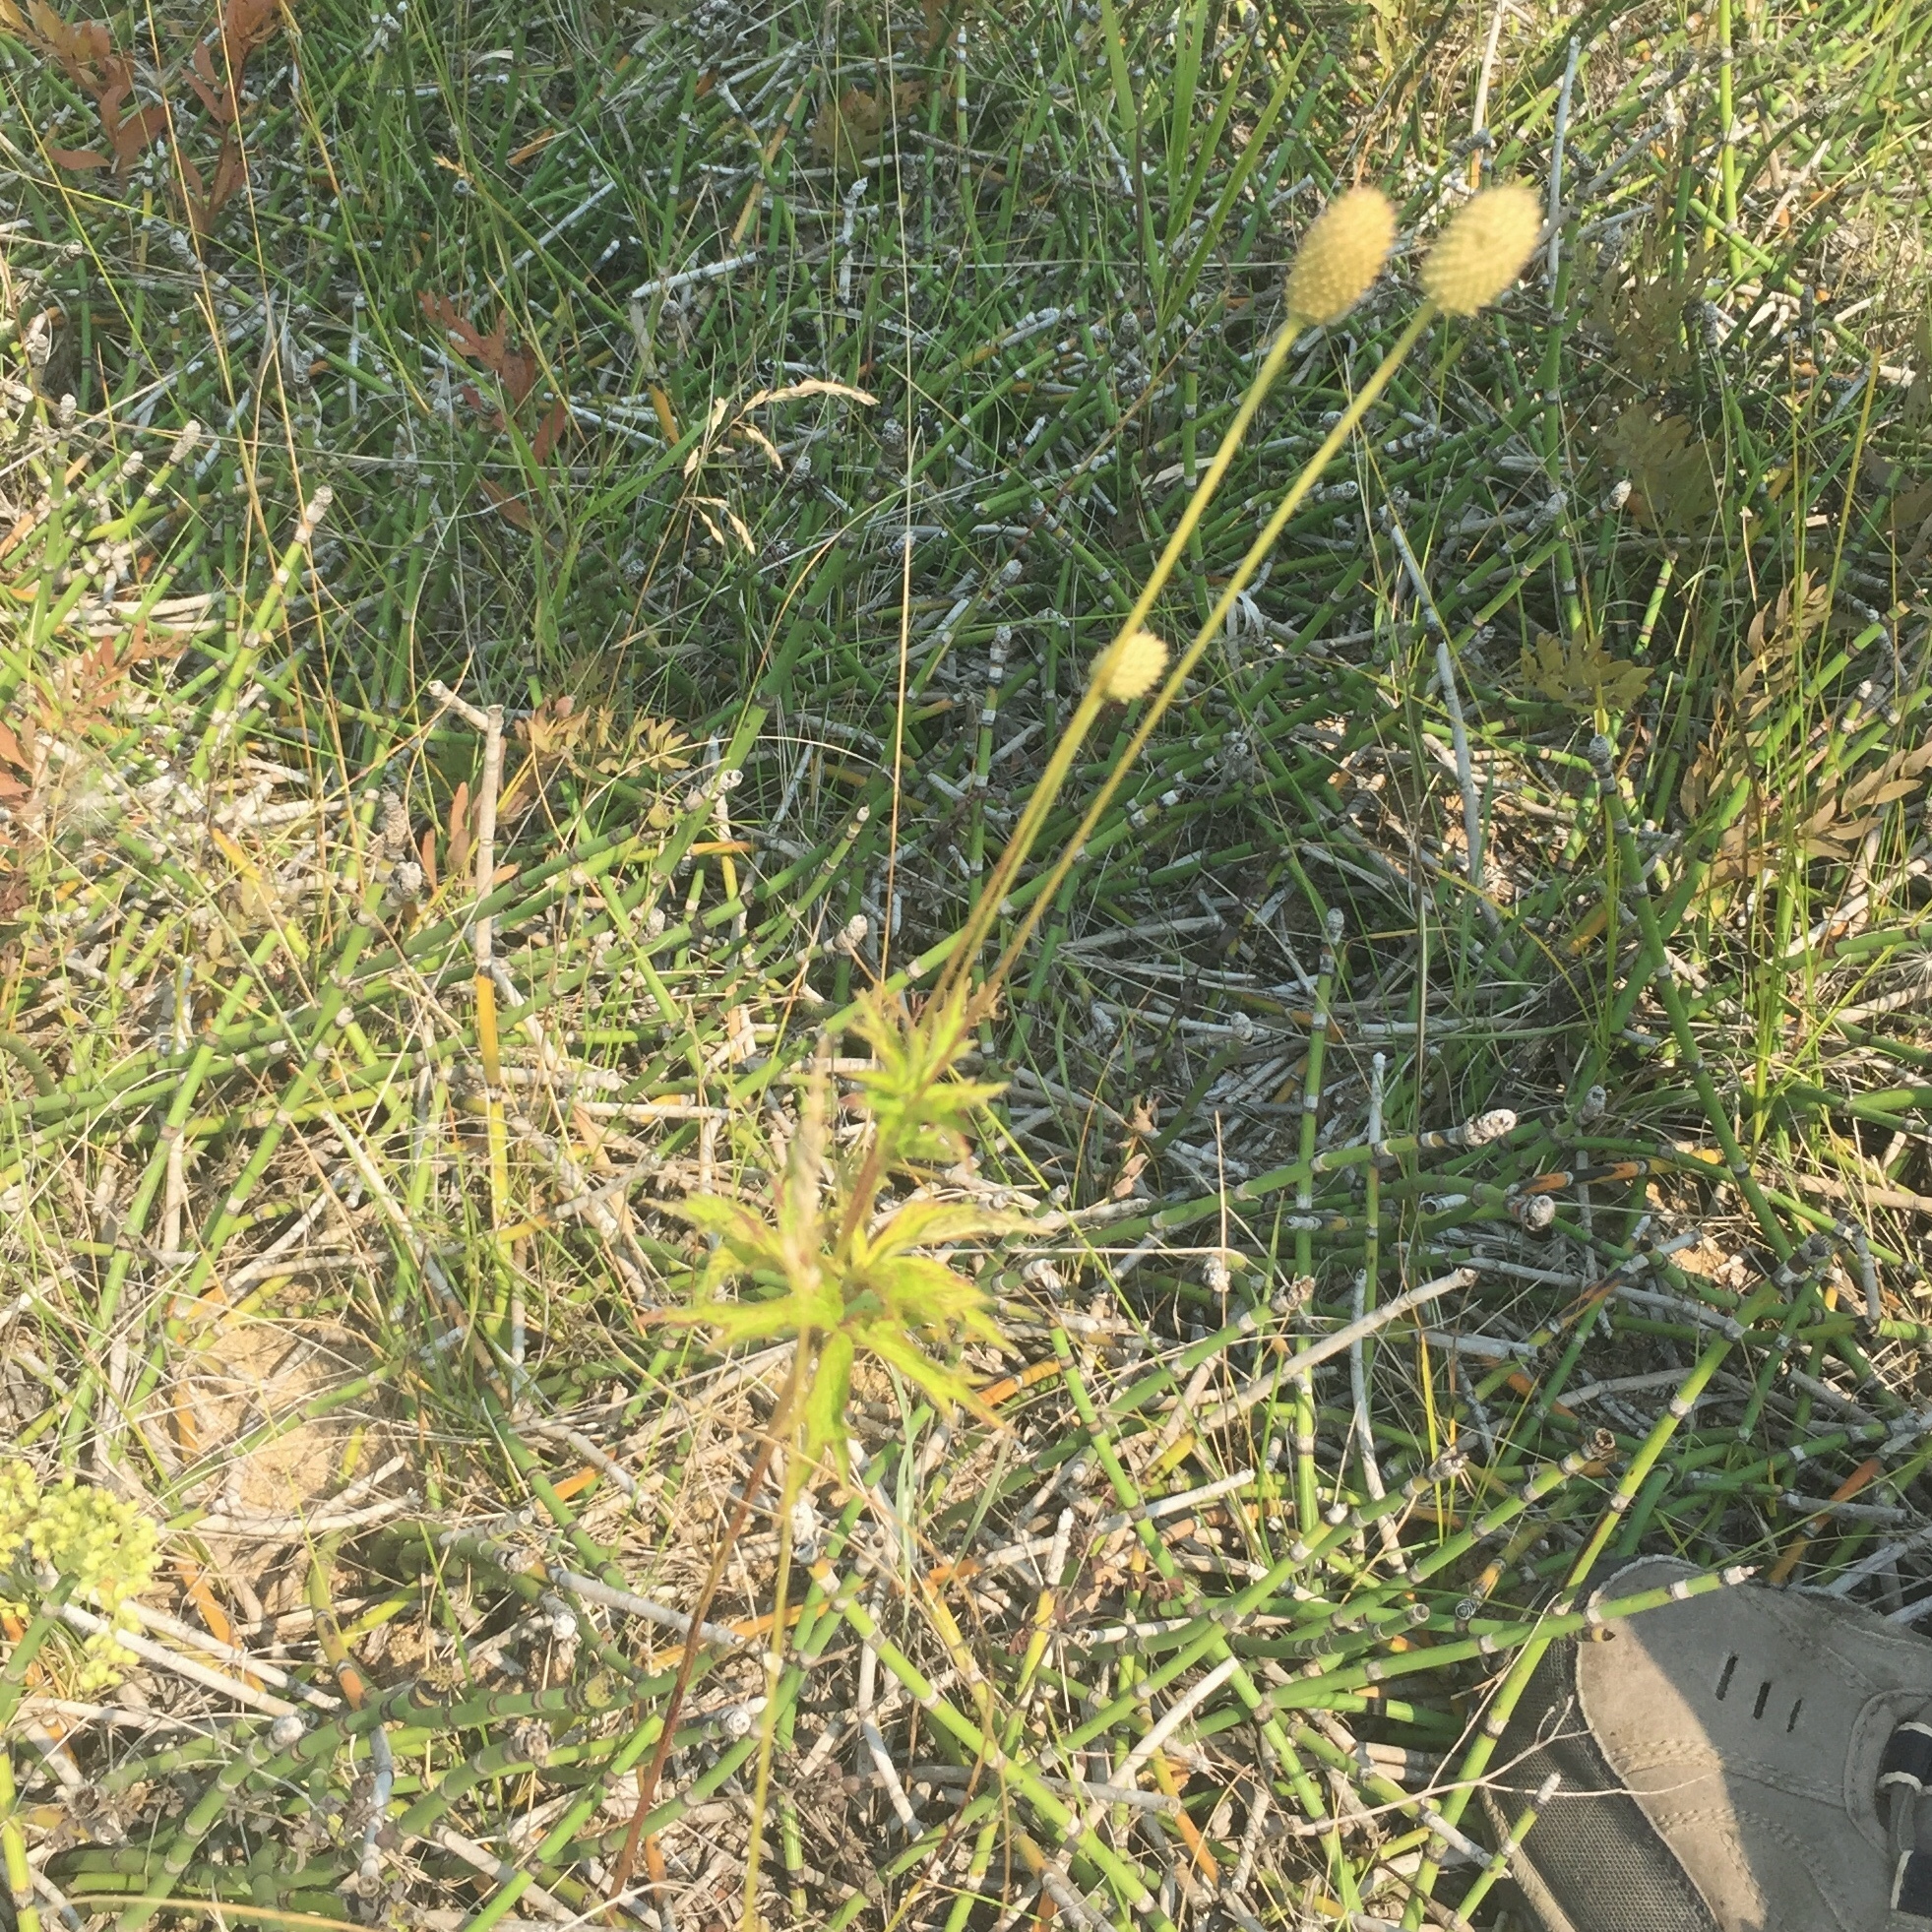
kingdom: Plantae
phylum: Tracheophyta
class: Magnoliopsida
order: Ranunculales
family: Ranunculaceae
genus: Anemone
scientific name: Anemone cylindrica
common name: Candle anemone
